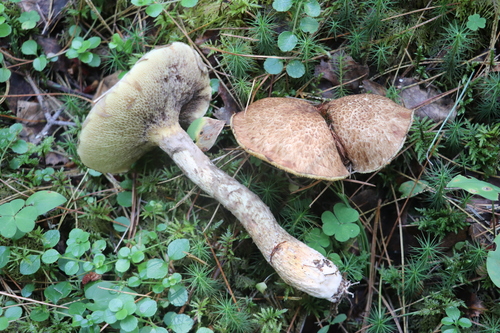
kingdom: Fungi
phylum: Basidiomycota
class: Agaricomycetes
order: Boletales
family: Suillaceae
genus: Suillus
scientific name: Suillus spraguei
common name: Painted suillus
